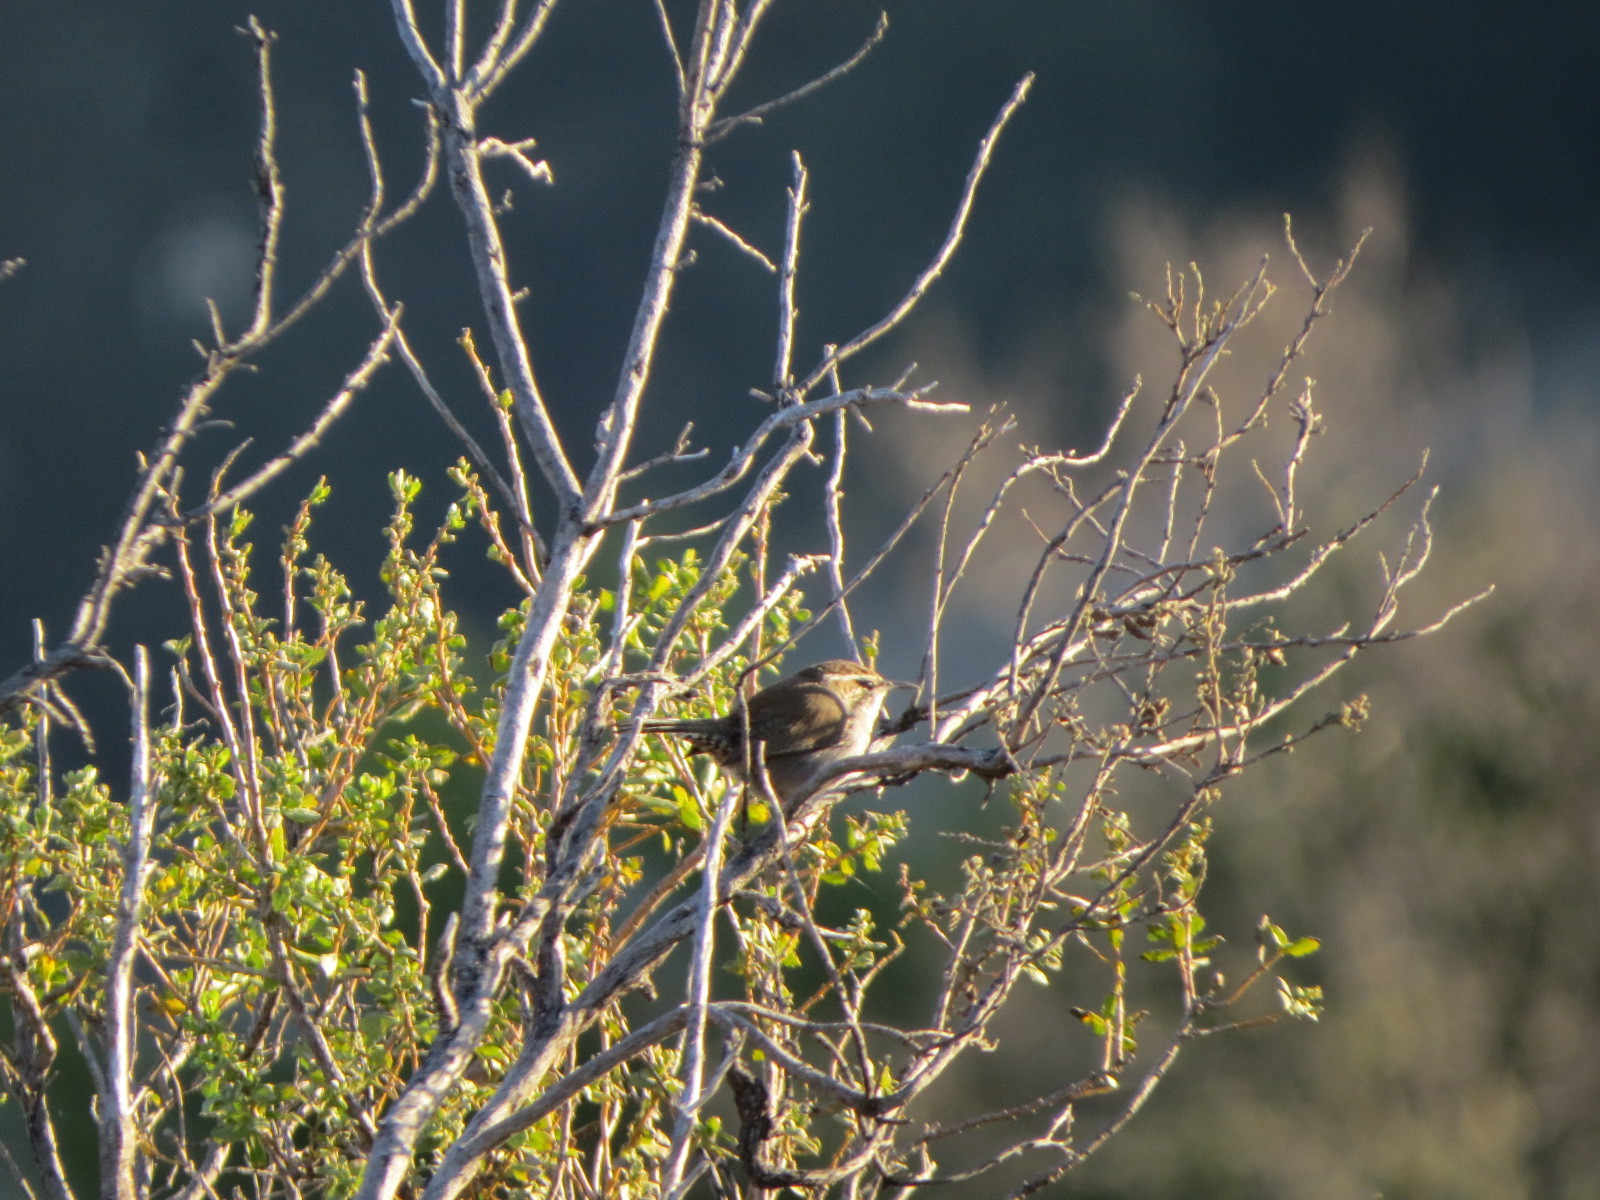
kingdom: Animalia
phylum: Chordata
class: Aves
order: Passeriformes
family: Troglodytidae
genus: Thryomanes
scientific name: Thryomanes bewickii
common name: Bewick's wren
